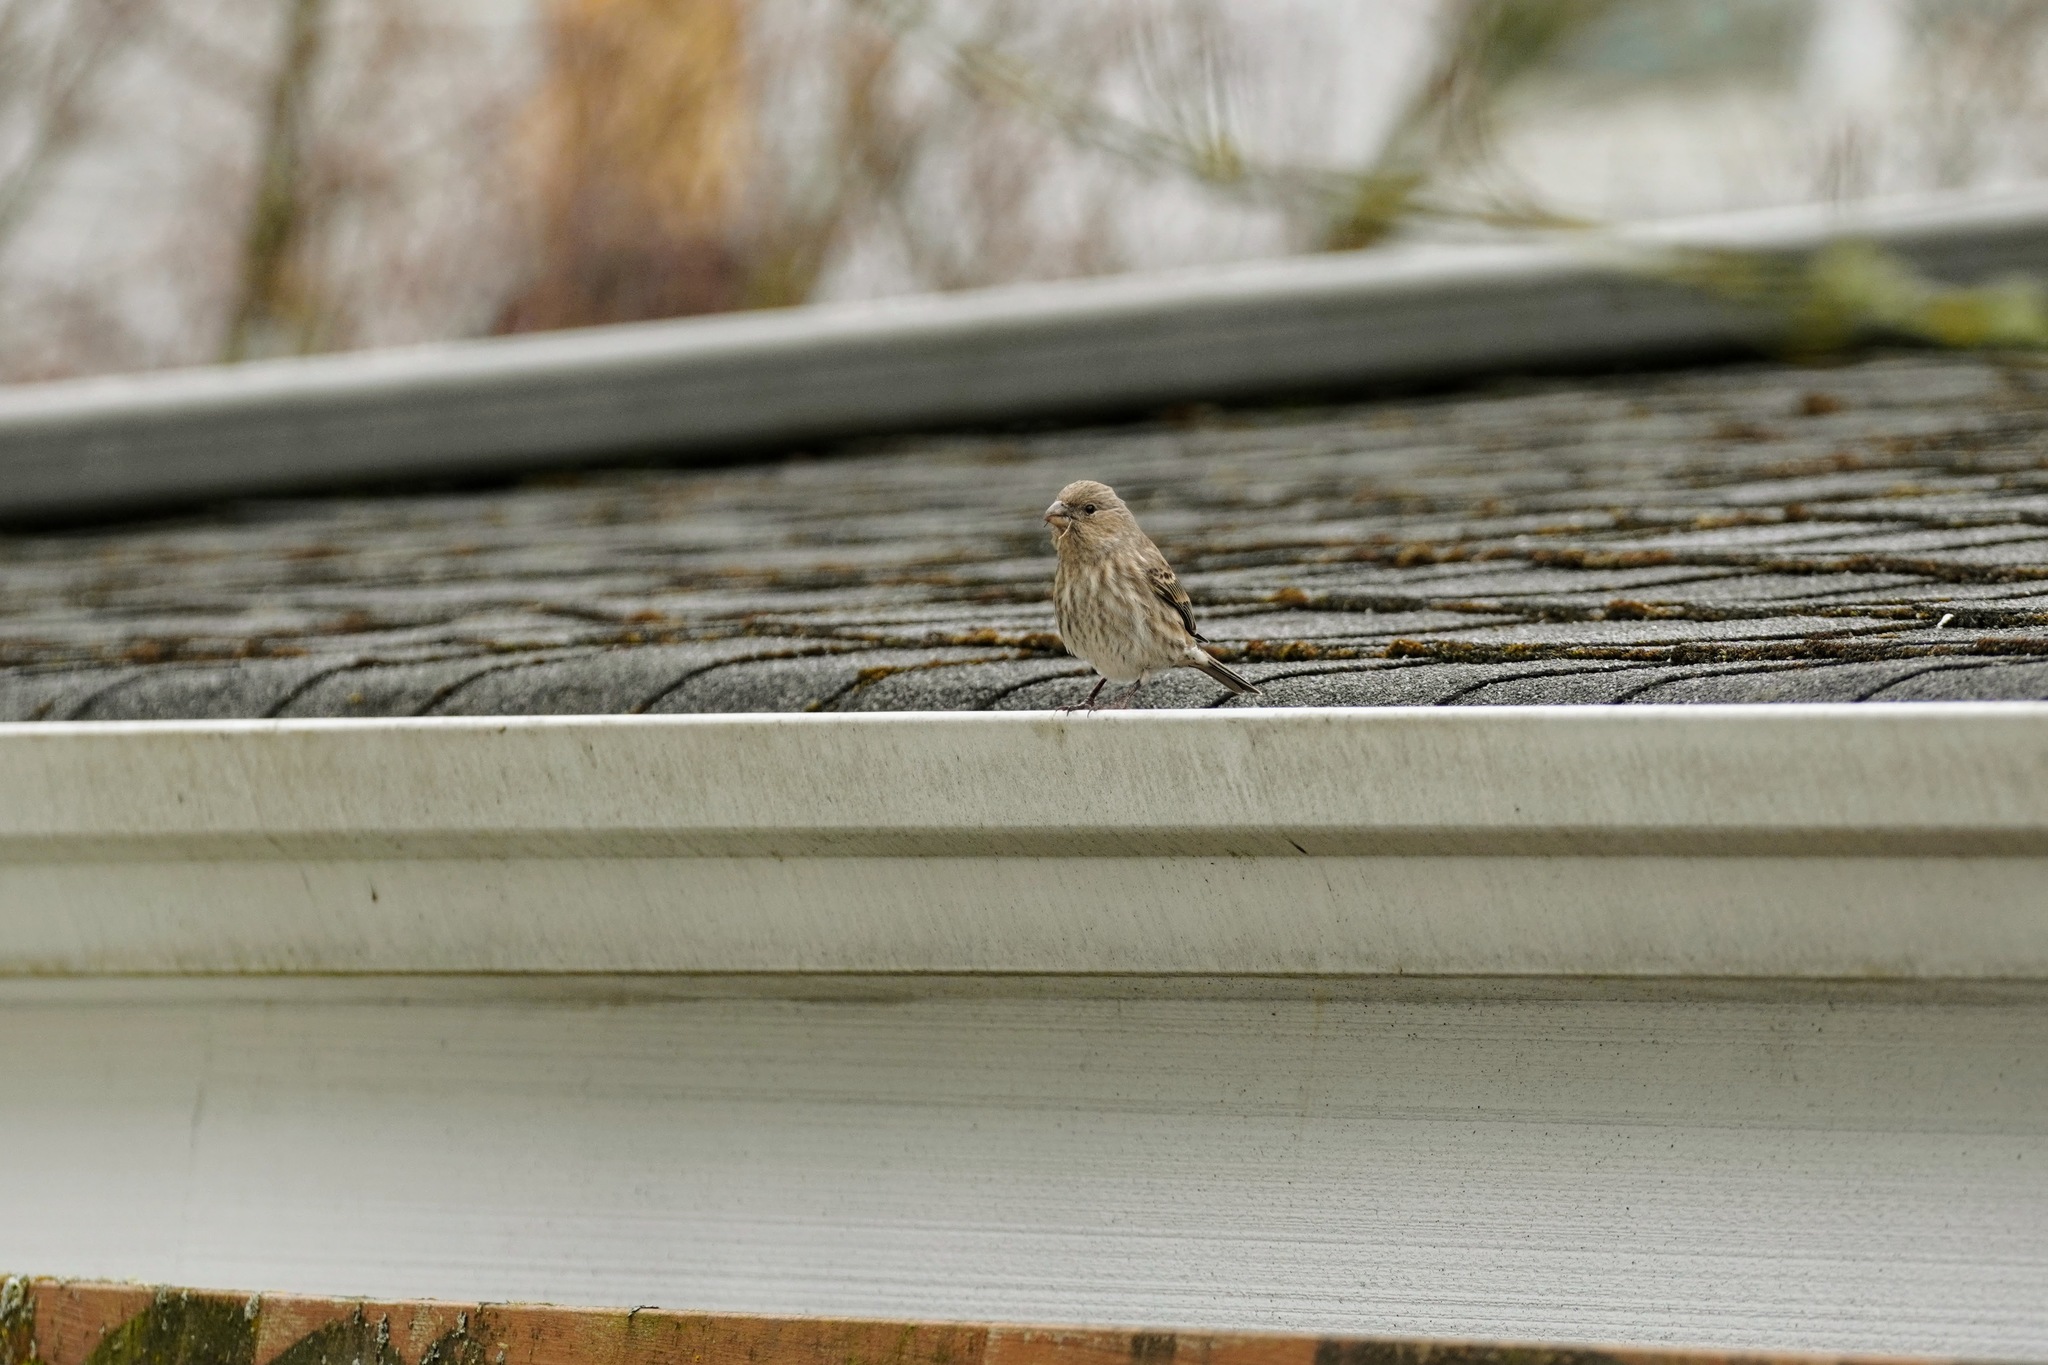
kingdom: Animalia
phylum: Chordata
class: Aves
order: Passeriformes
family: Fringillidae
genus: Haemorhous
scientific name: Haemorhous mexicanus
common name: House finch
